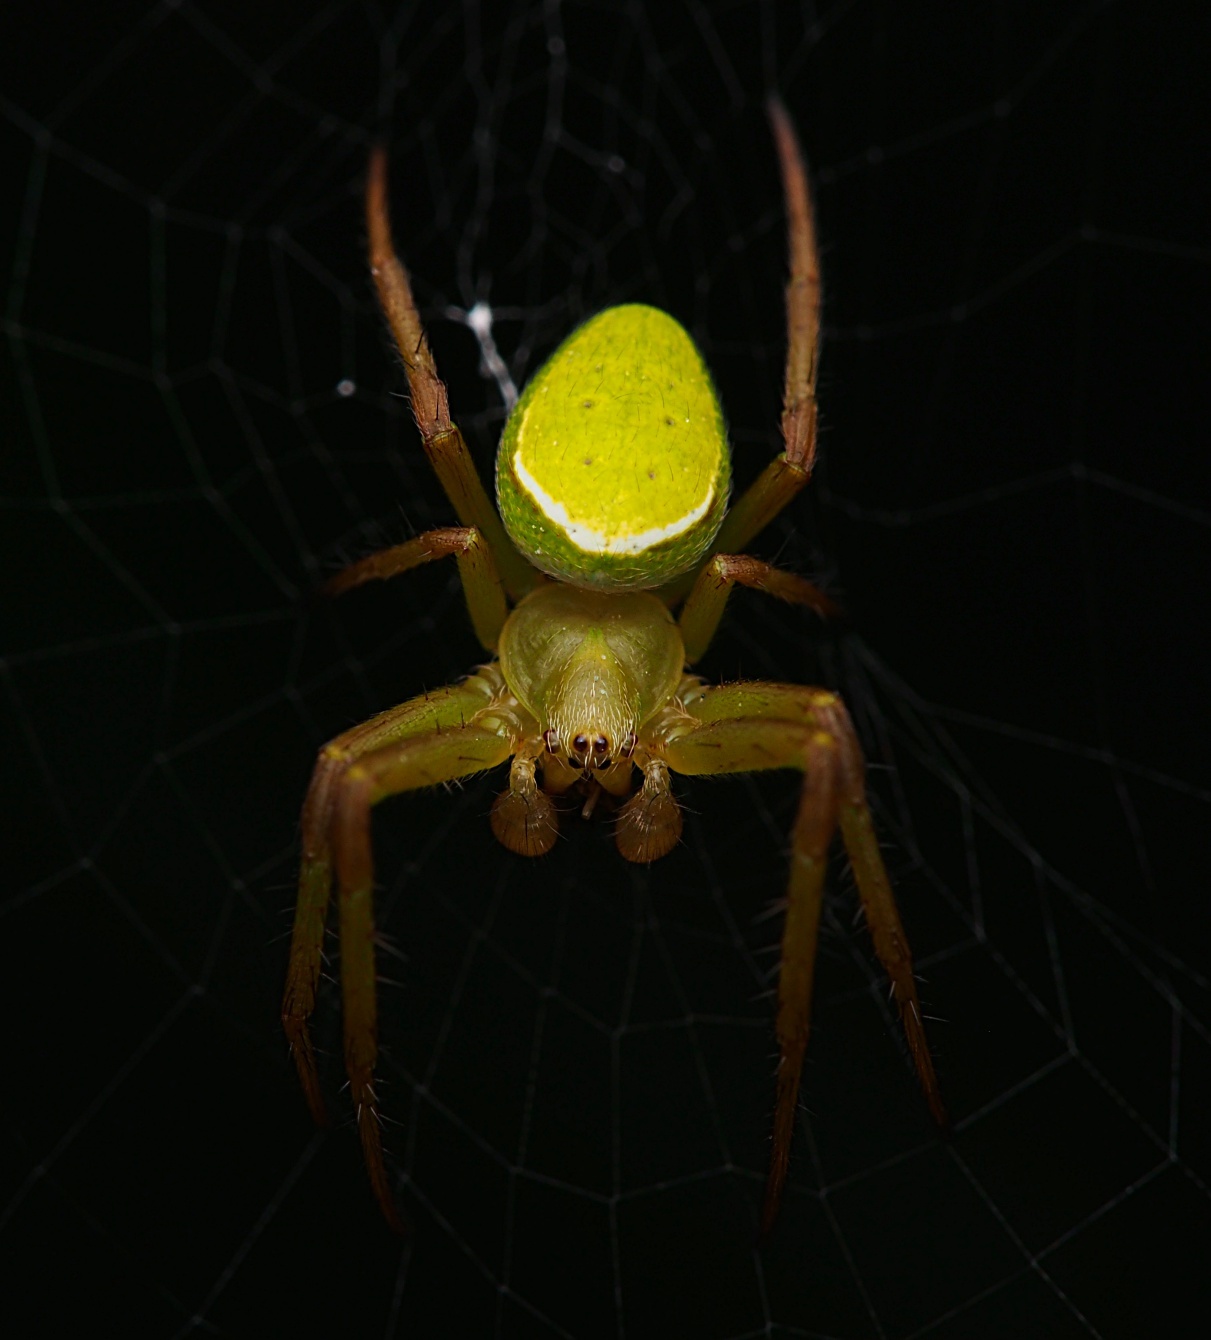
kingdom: Animalia
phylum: Arthropoda
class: Arachnida
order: Araneae
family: Araneidae
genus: Colaranea
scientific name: Colaranea viriditas
